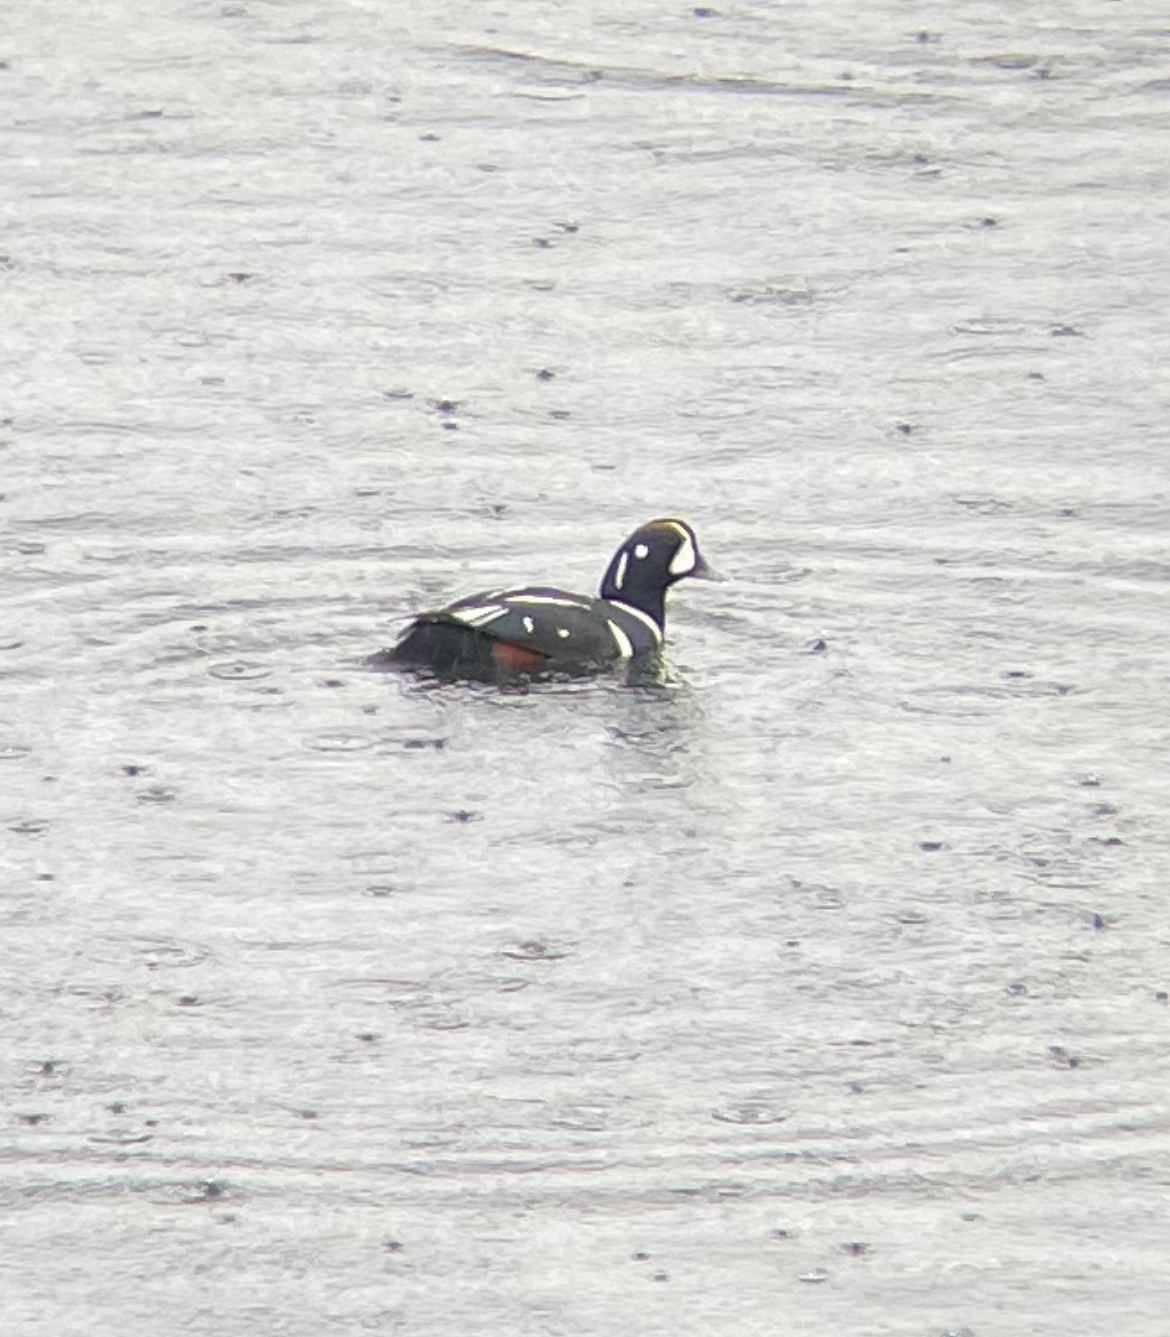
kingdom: Animalia
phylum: Chordata
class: Aves
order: Anseriformes
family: Anatidae
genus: Histrionicus
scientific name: Histrionicus histrionicus
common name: Harlequin duck
